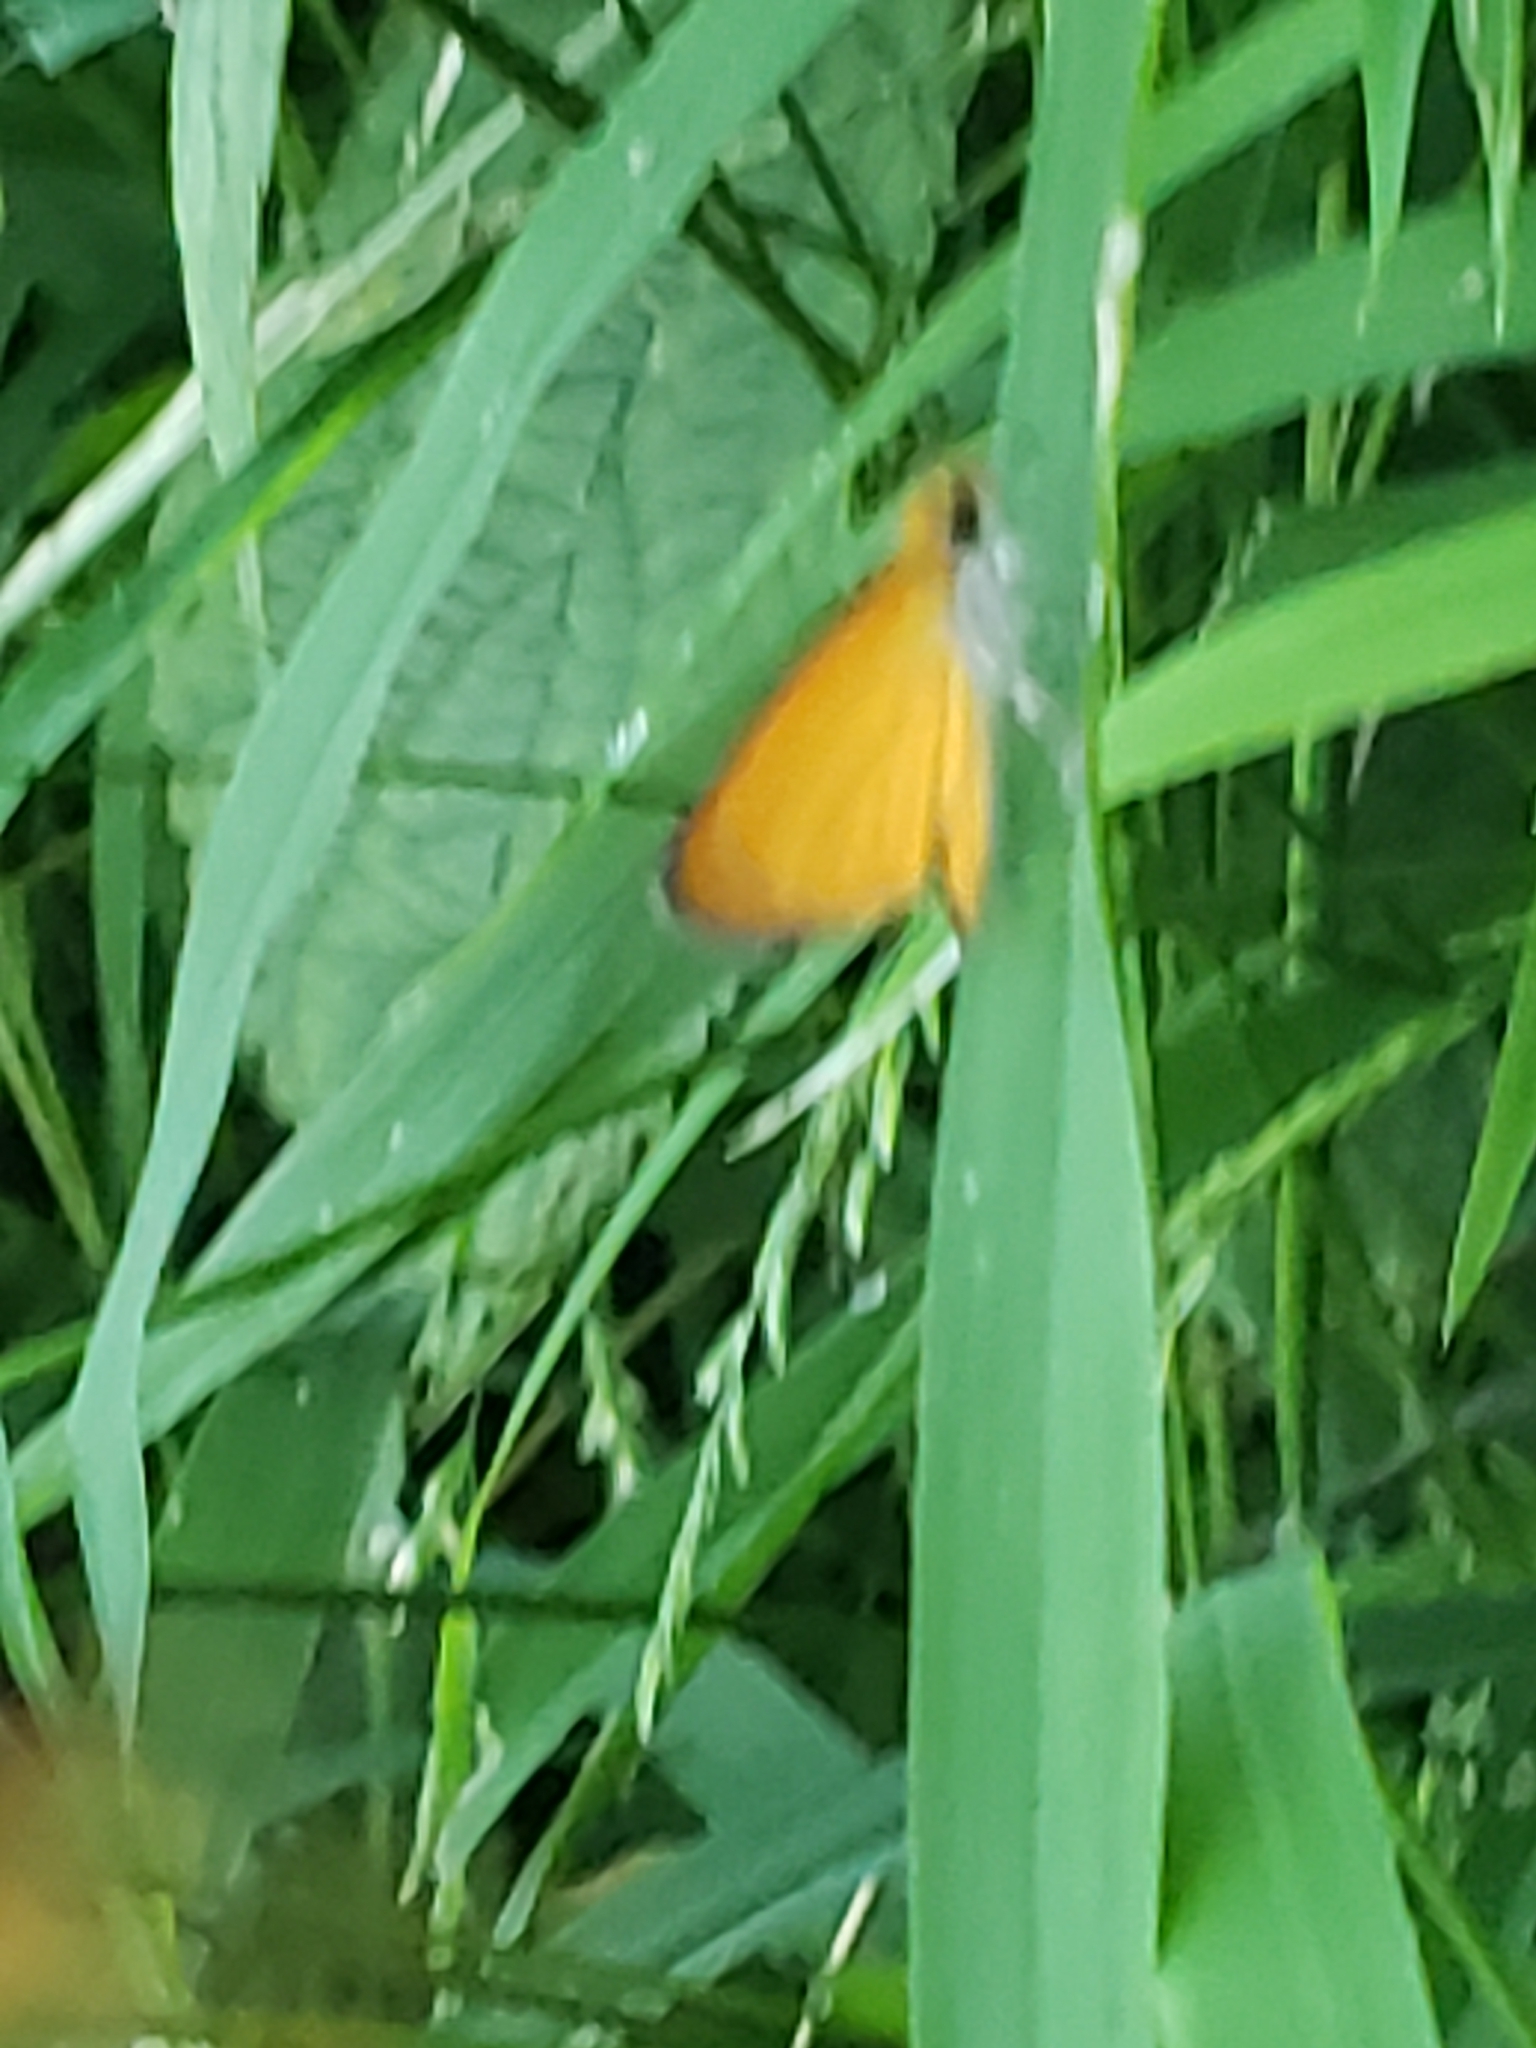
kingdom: Animalia
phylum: Arthropoda
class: Insecta
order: Lepidoptera
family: Hesperiidae
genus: Ancyloxypha
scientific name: Ancyloxypha numitor
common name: Least skipper
